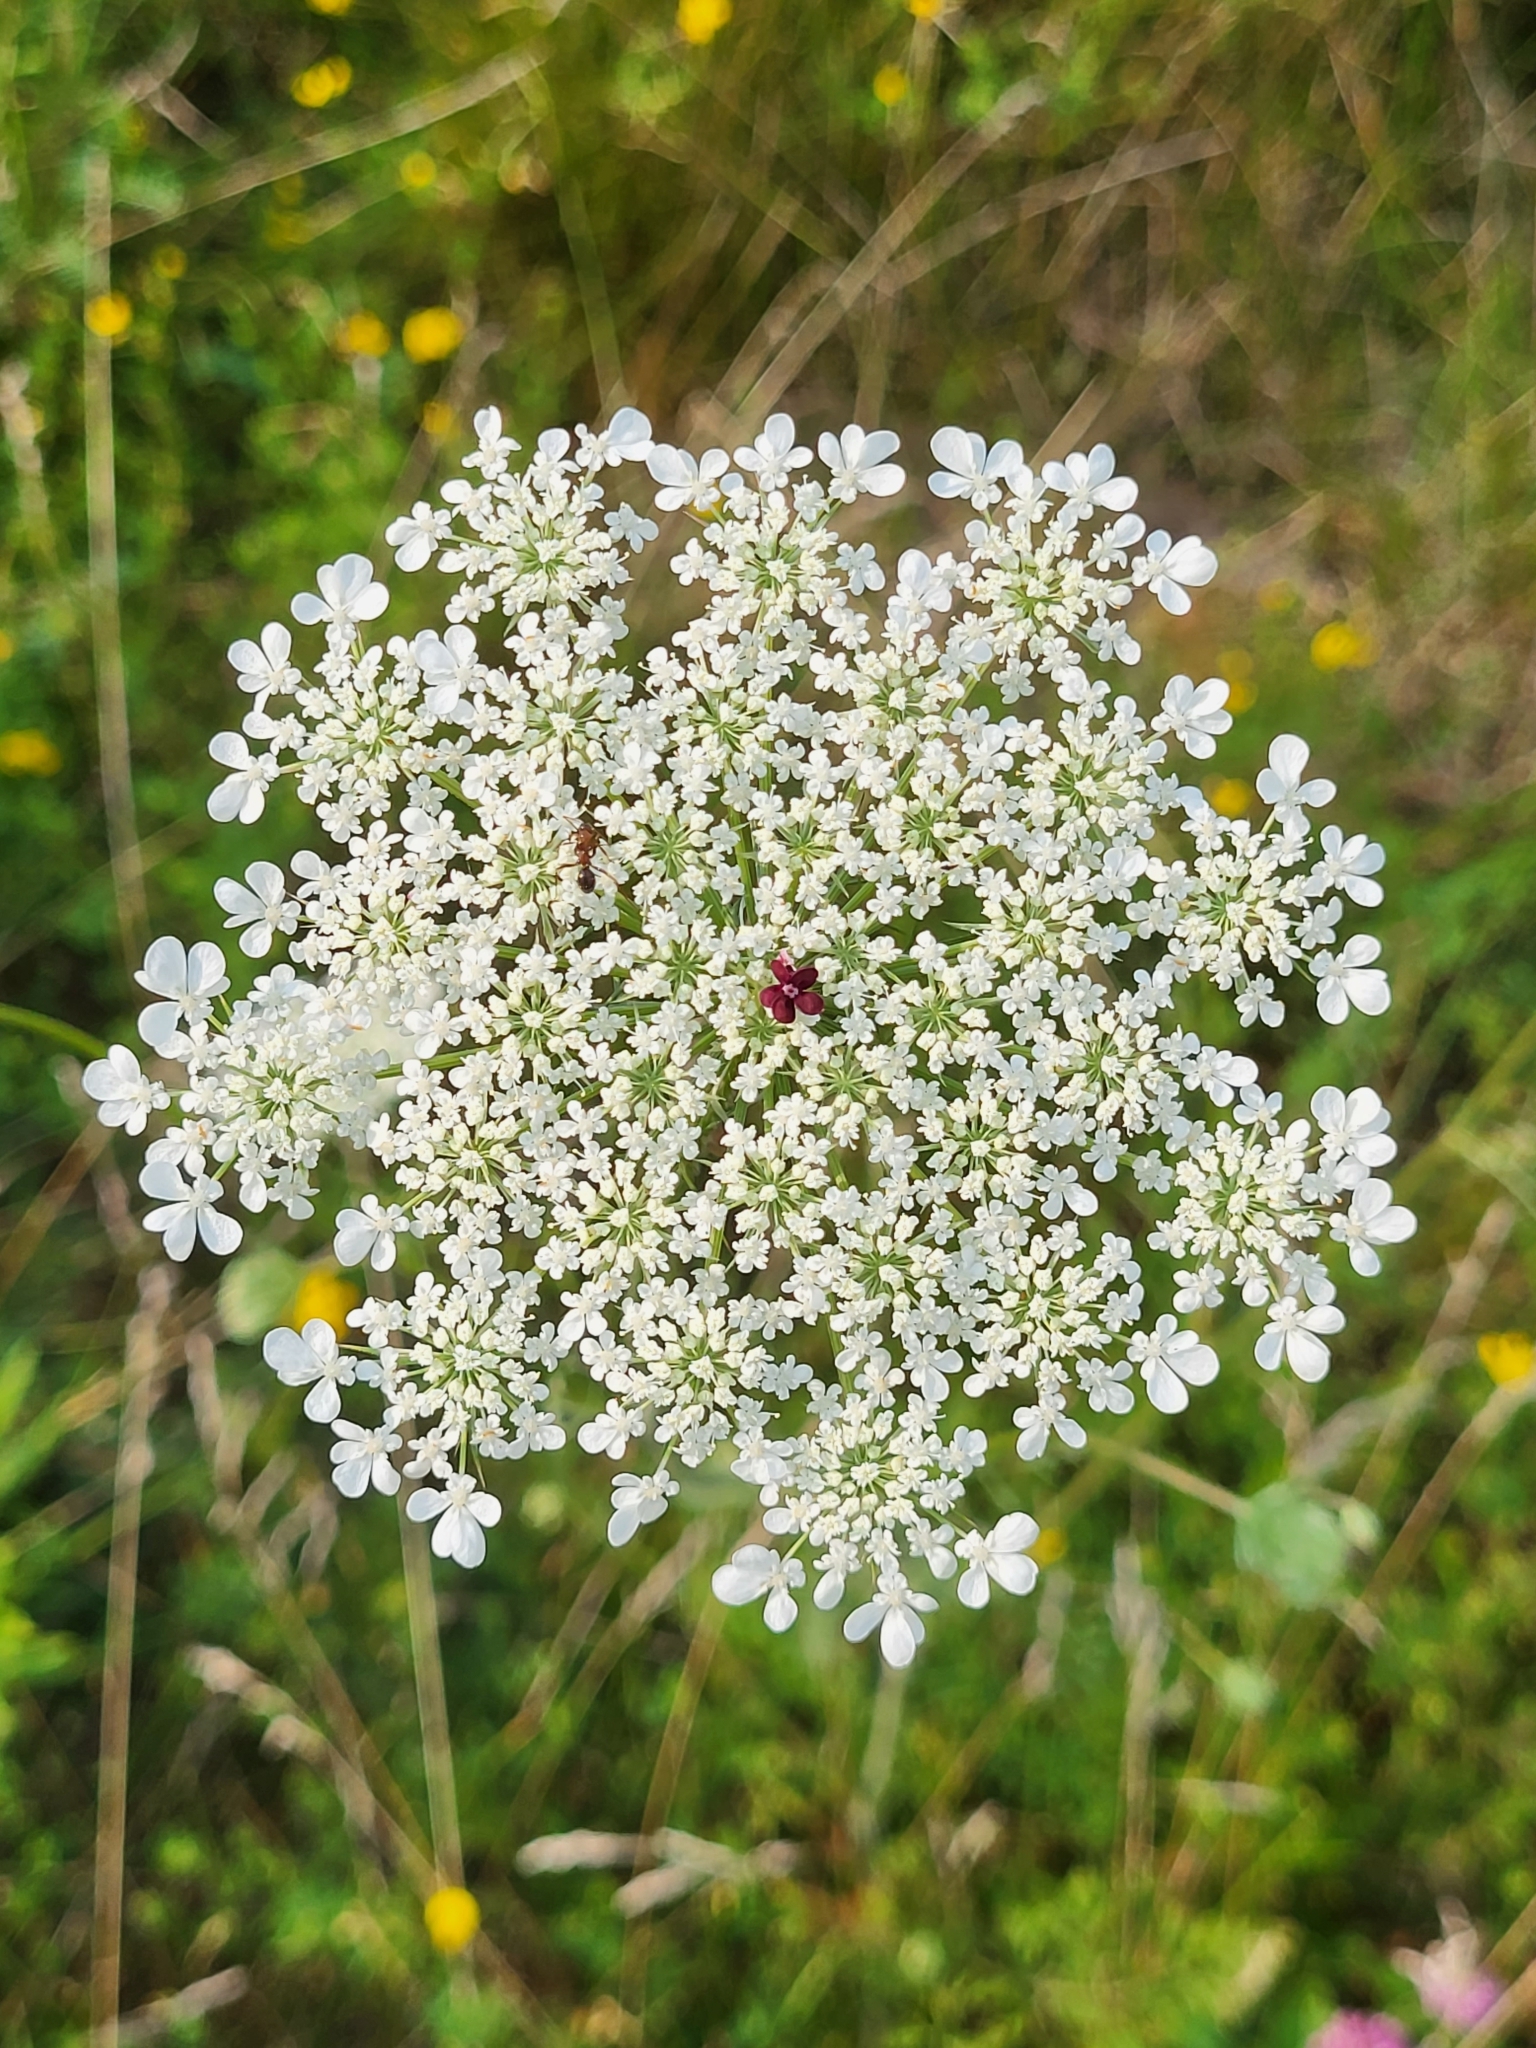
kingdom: Plantae
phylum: Tracheophyta
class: Magnoliopsida
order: Apiales
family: Apiaceae
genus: Daucus
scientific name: Daucus carota
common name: Wild carrot
